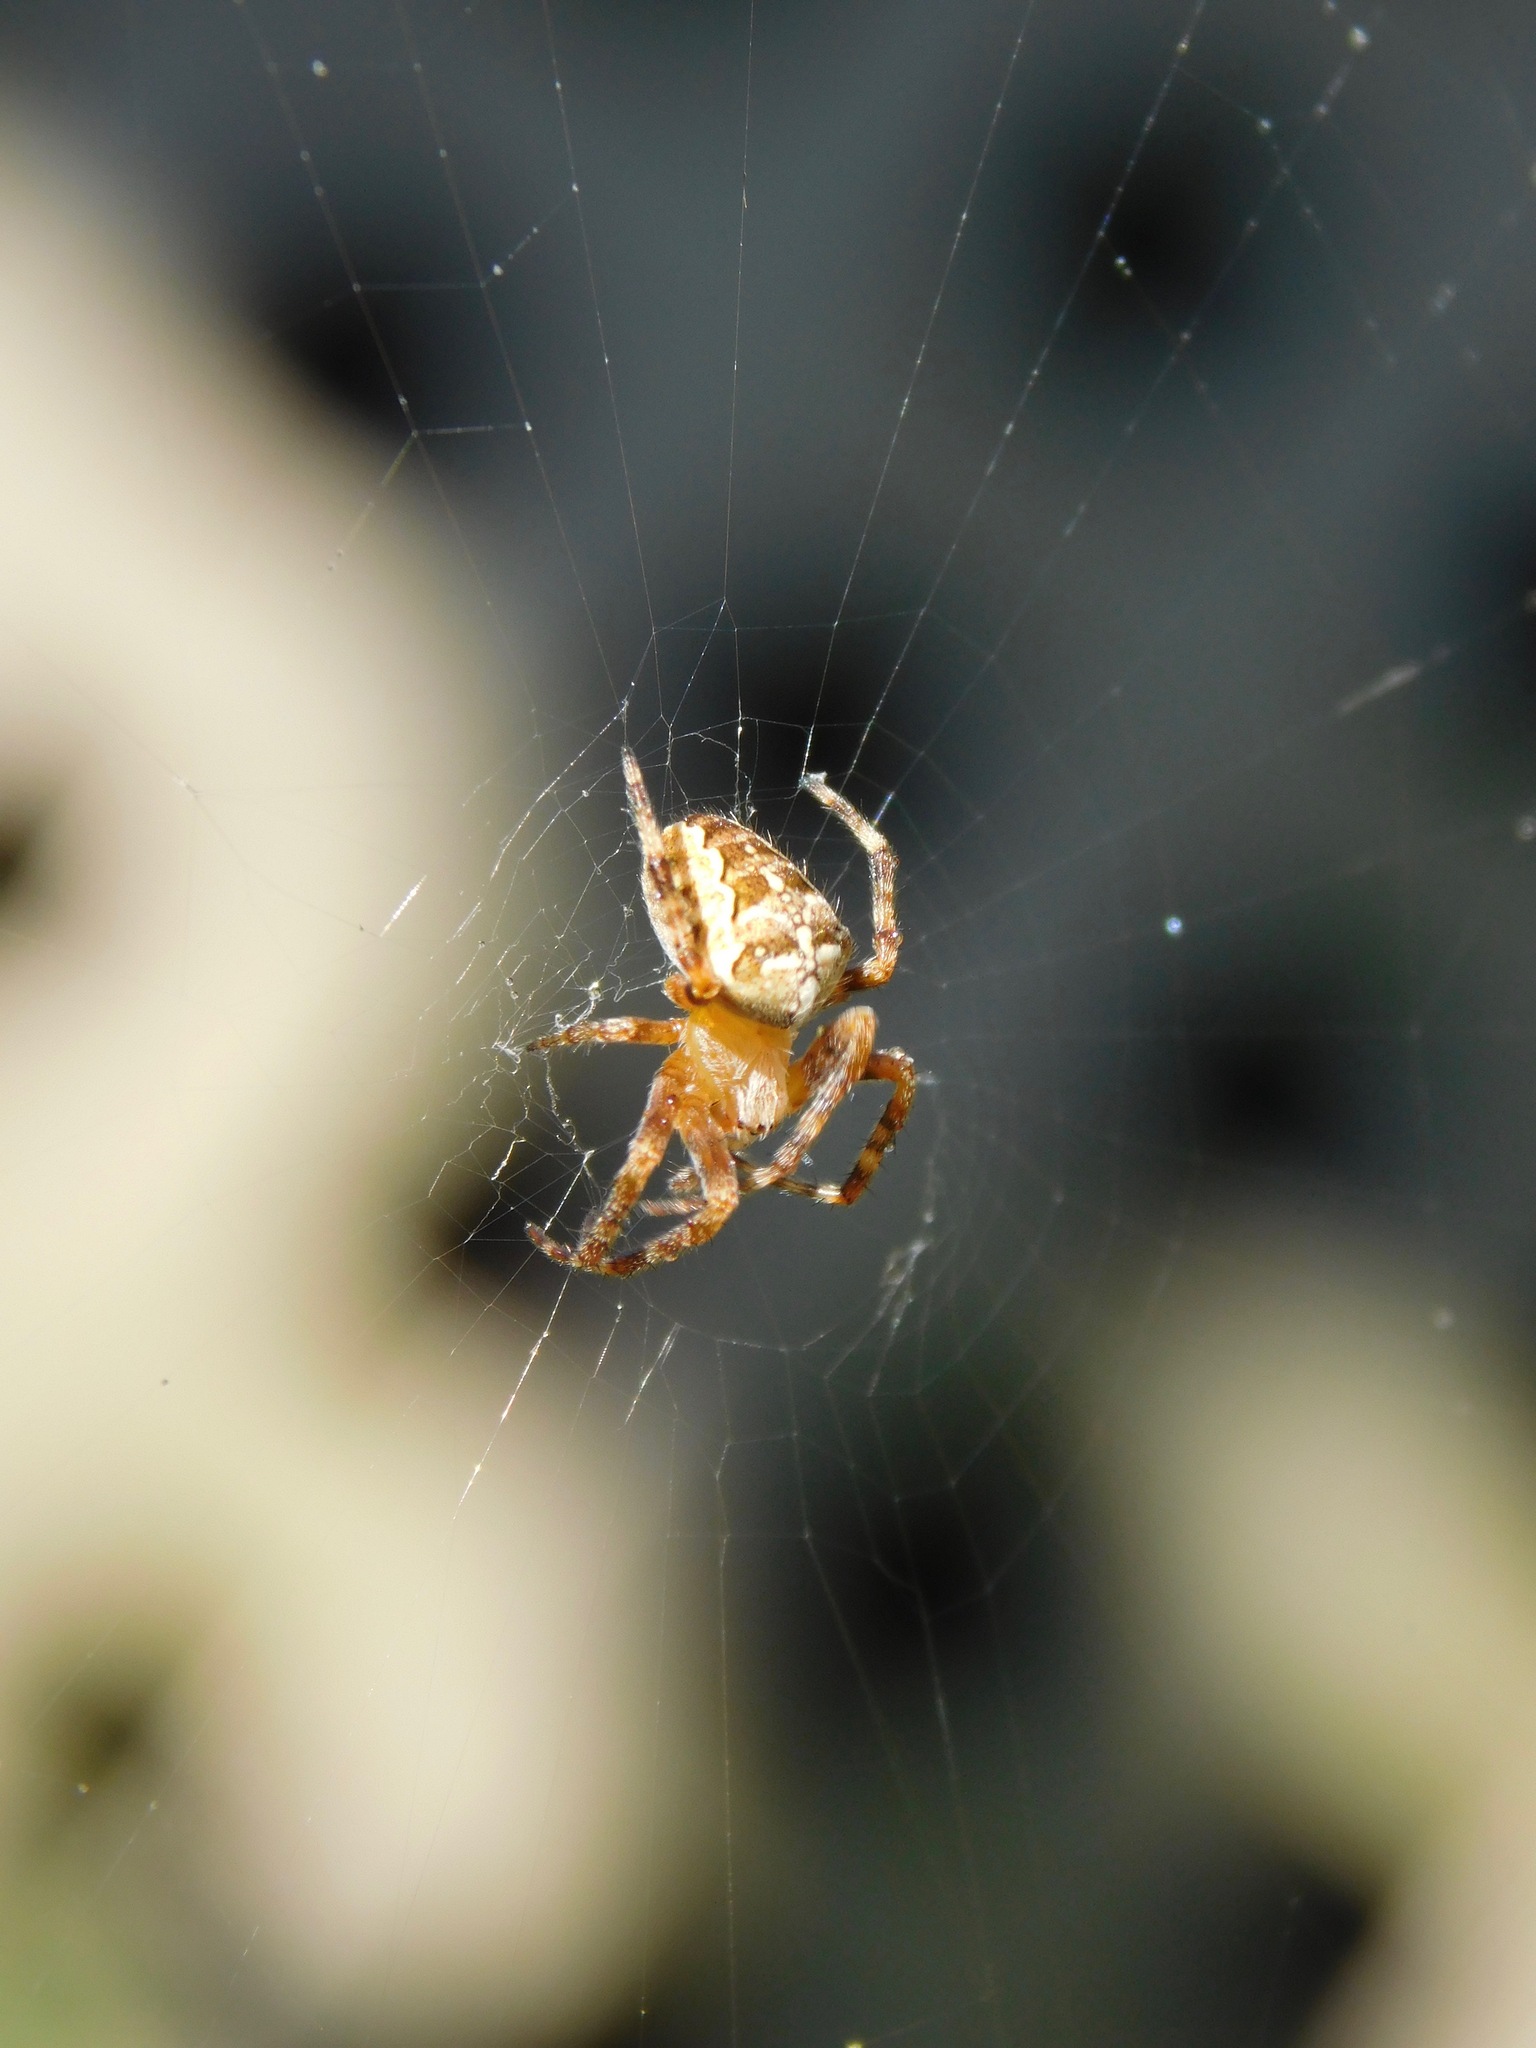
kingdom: Animalia
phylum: Arthropoda
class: Arachnida
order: Araneae
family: Araneidae
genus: Araneus
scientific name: Araneus diadematus
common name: Cross orbweaver
